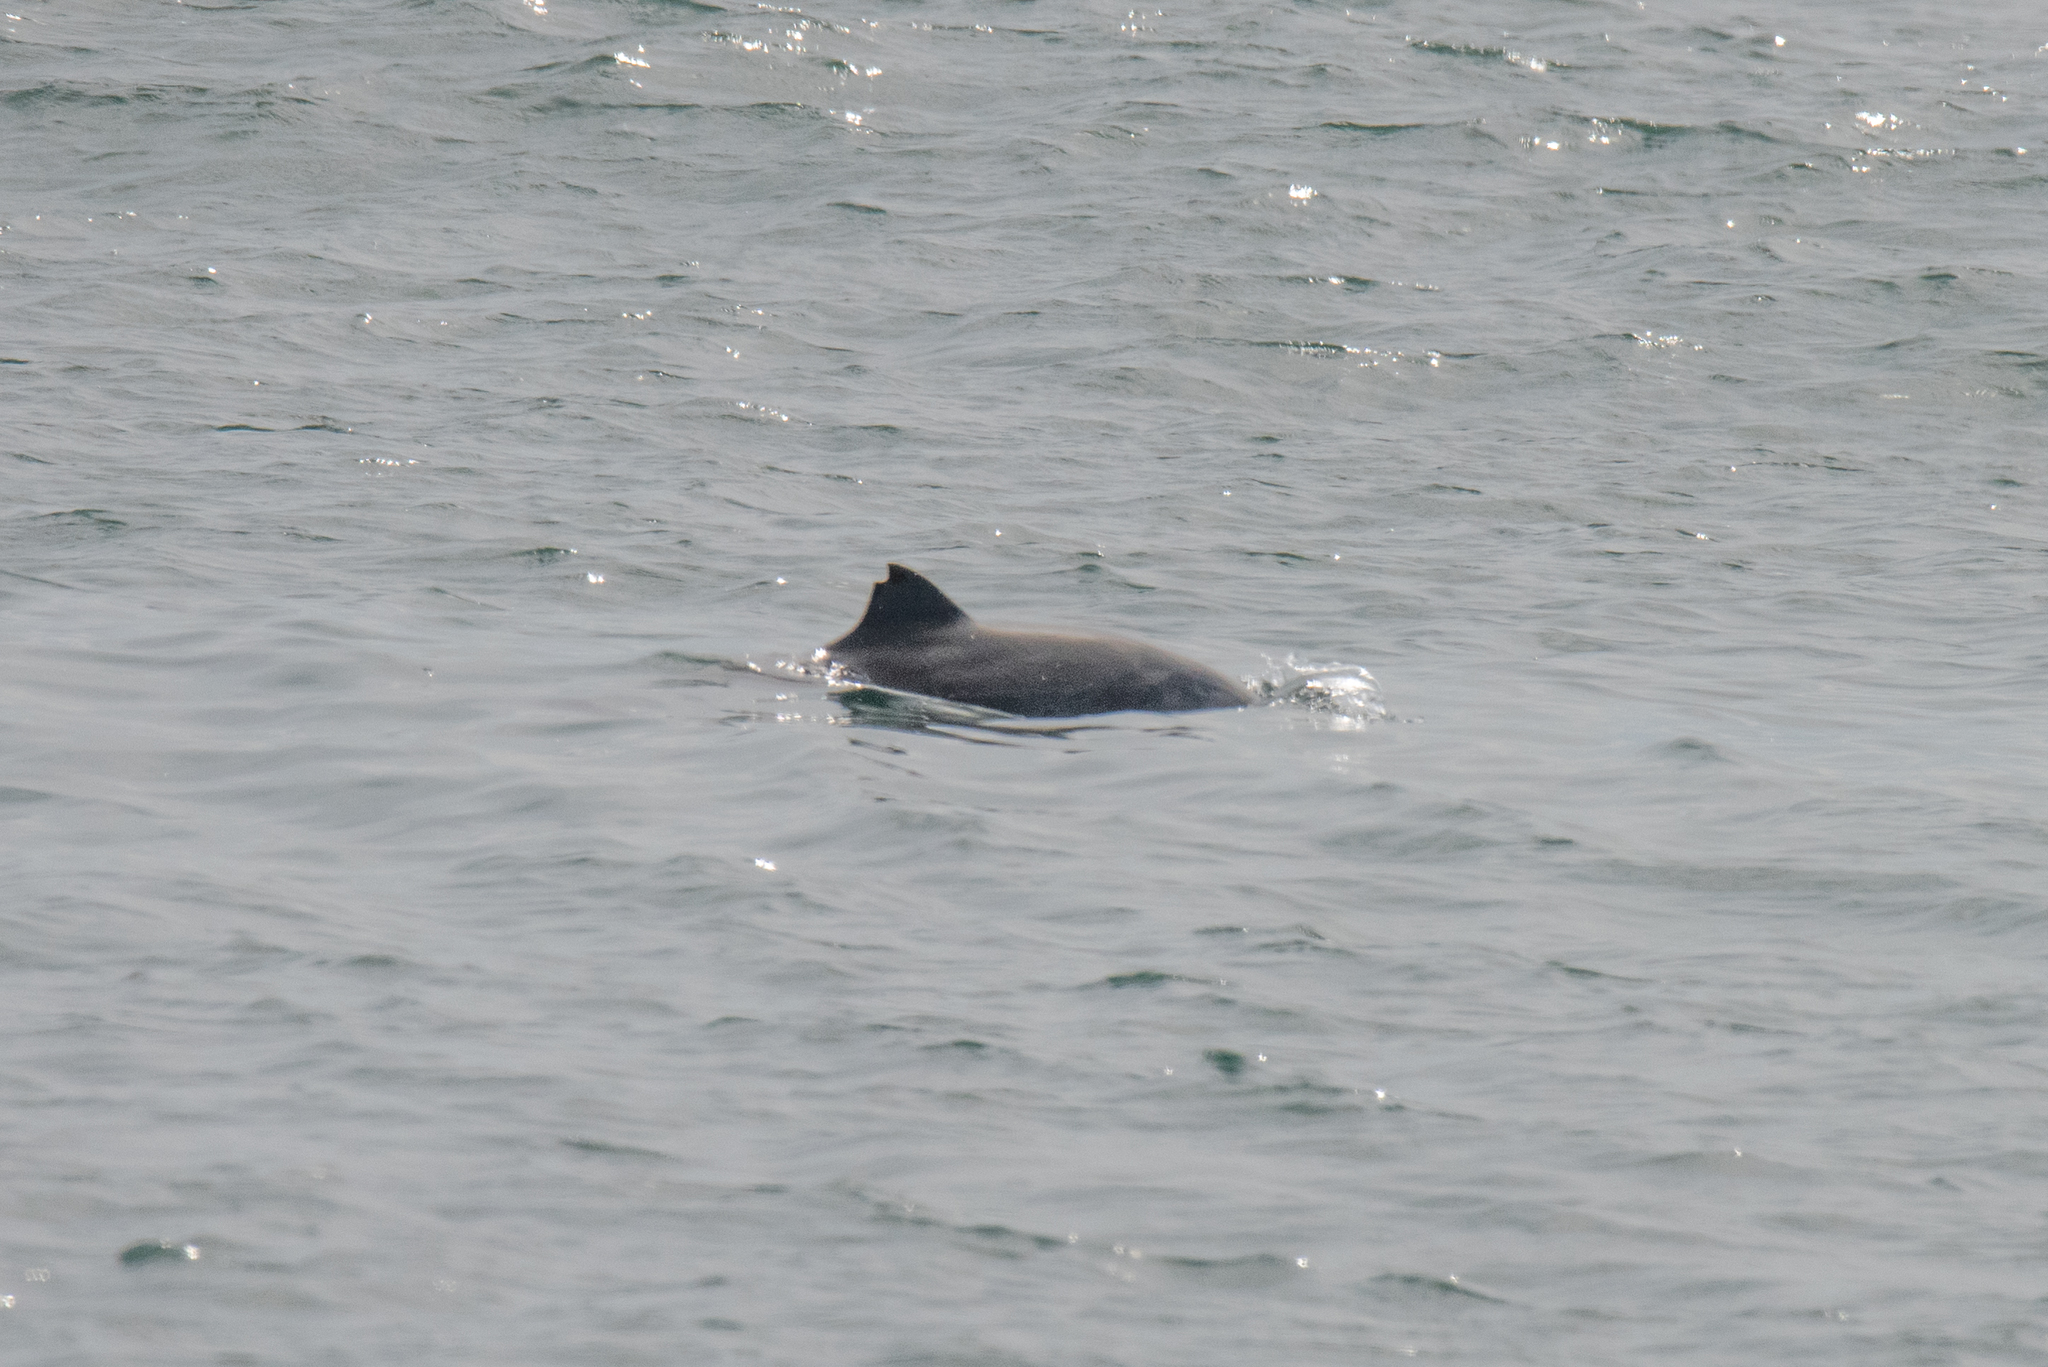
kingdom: Animalia
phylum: Chordata
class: Mammalia
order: Cetacea
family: Phocoenidae
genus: Phocoena
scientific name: Phocoena phocoena
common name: Harbor porpoise
